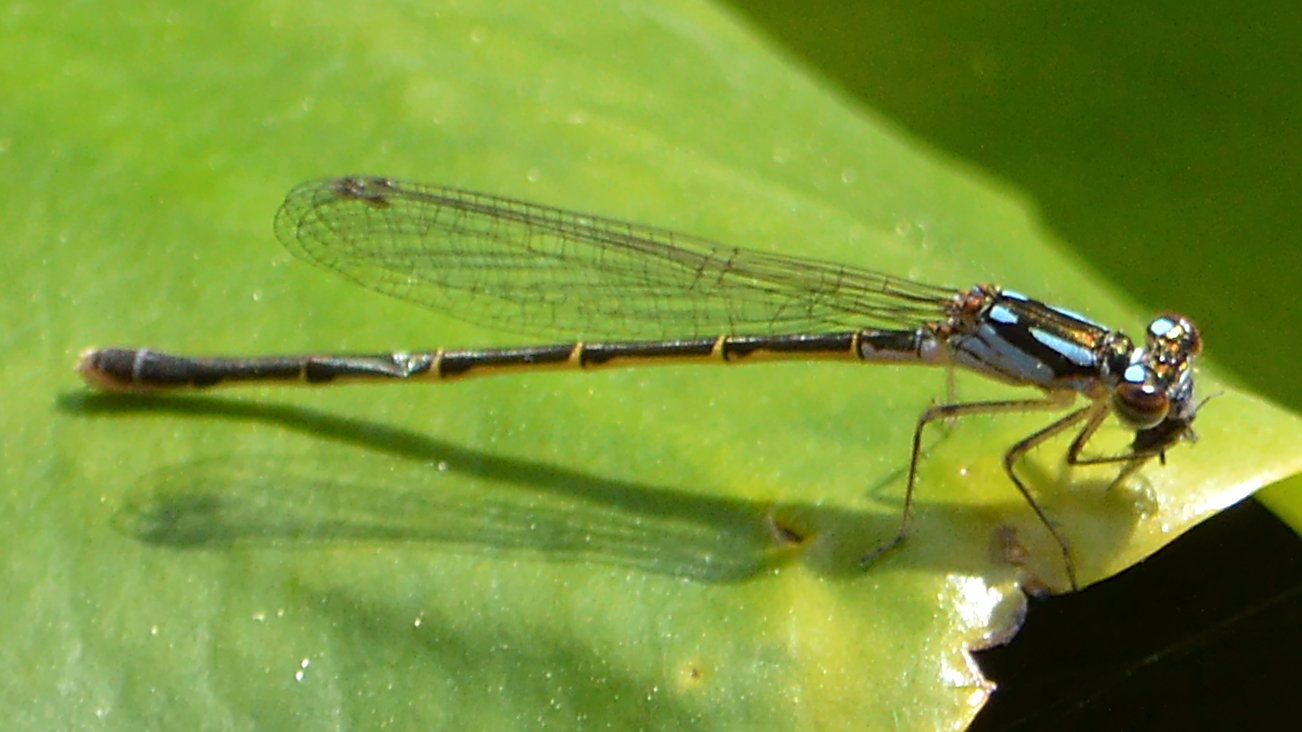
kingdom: Animalia
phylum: Arthropoda
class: Insecta
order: Odonata
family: Coenagrionidae
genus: Ischnura
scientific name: Ischnura posita
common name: Fragile forktail
